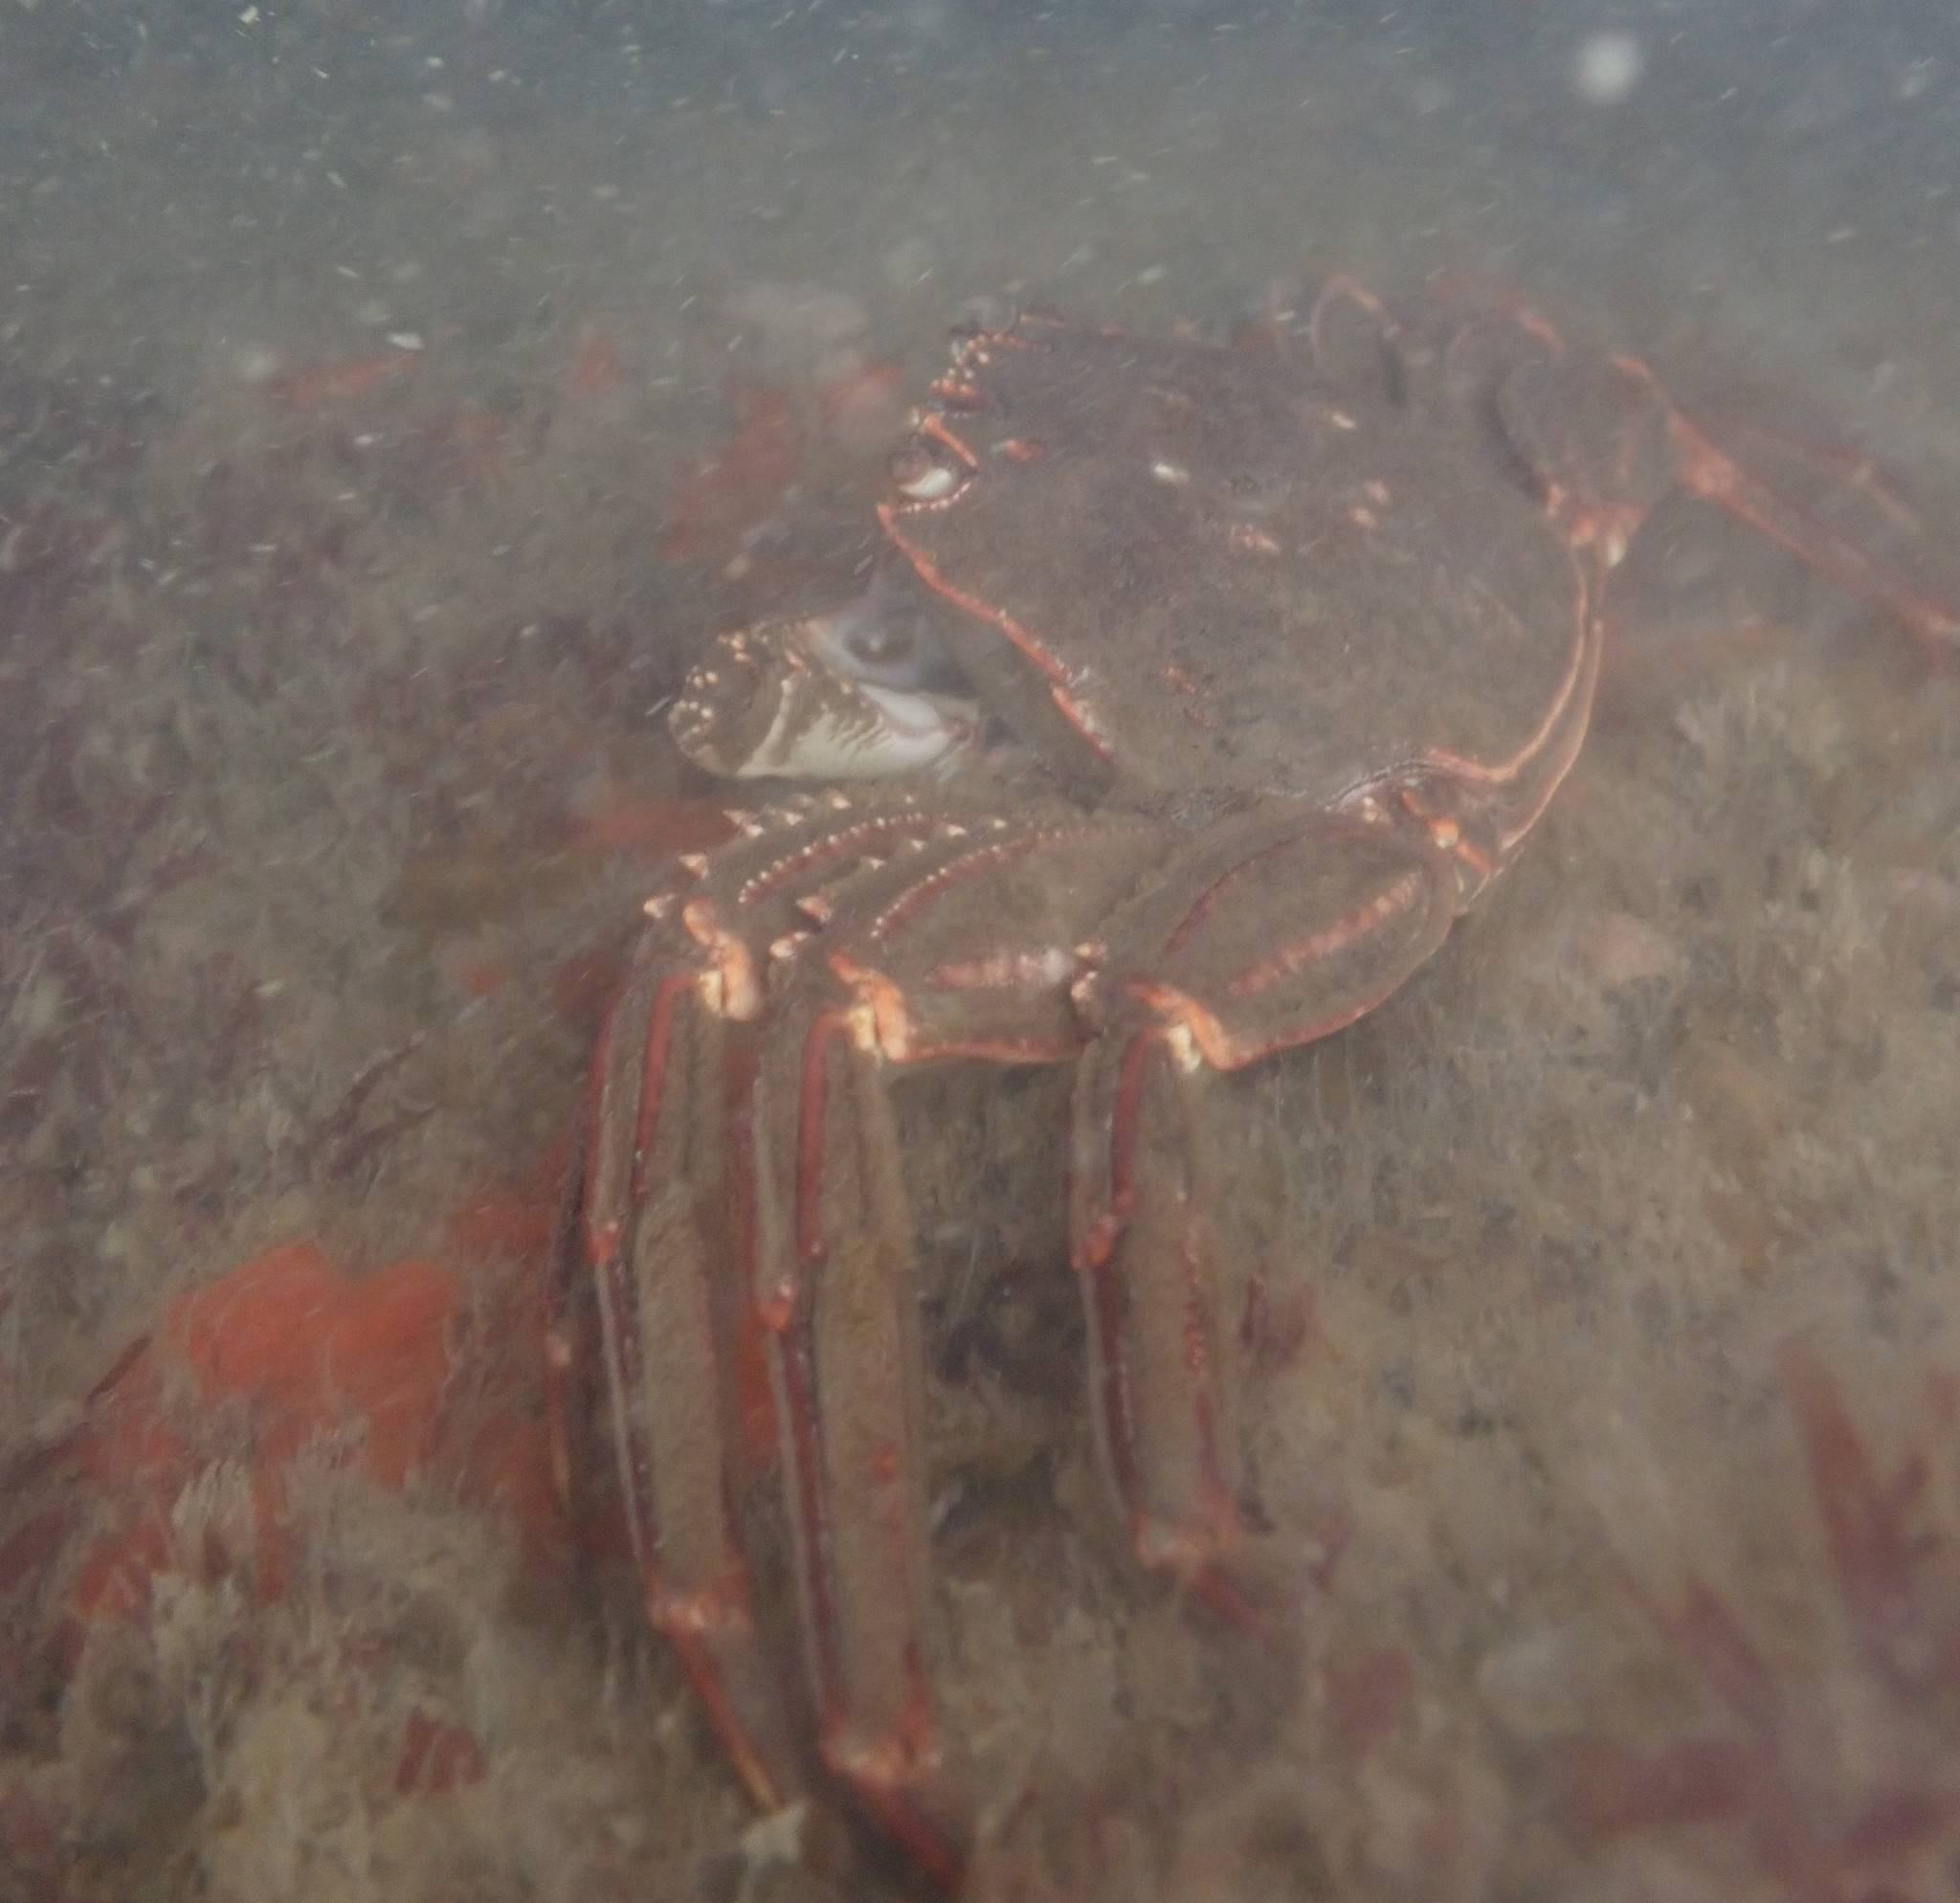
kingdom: Animalia
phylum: Arthropoda
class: Malacostraca
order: Decapoda
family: Plagusiidae
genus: Guinusia
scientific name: Guinusia chabrus
